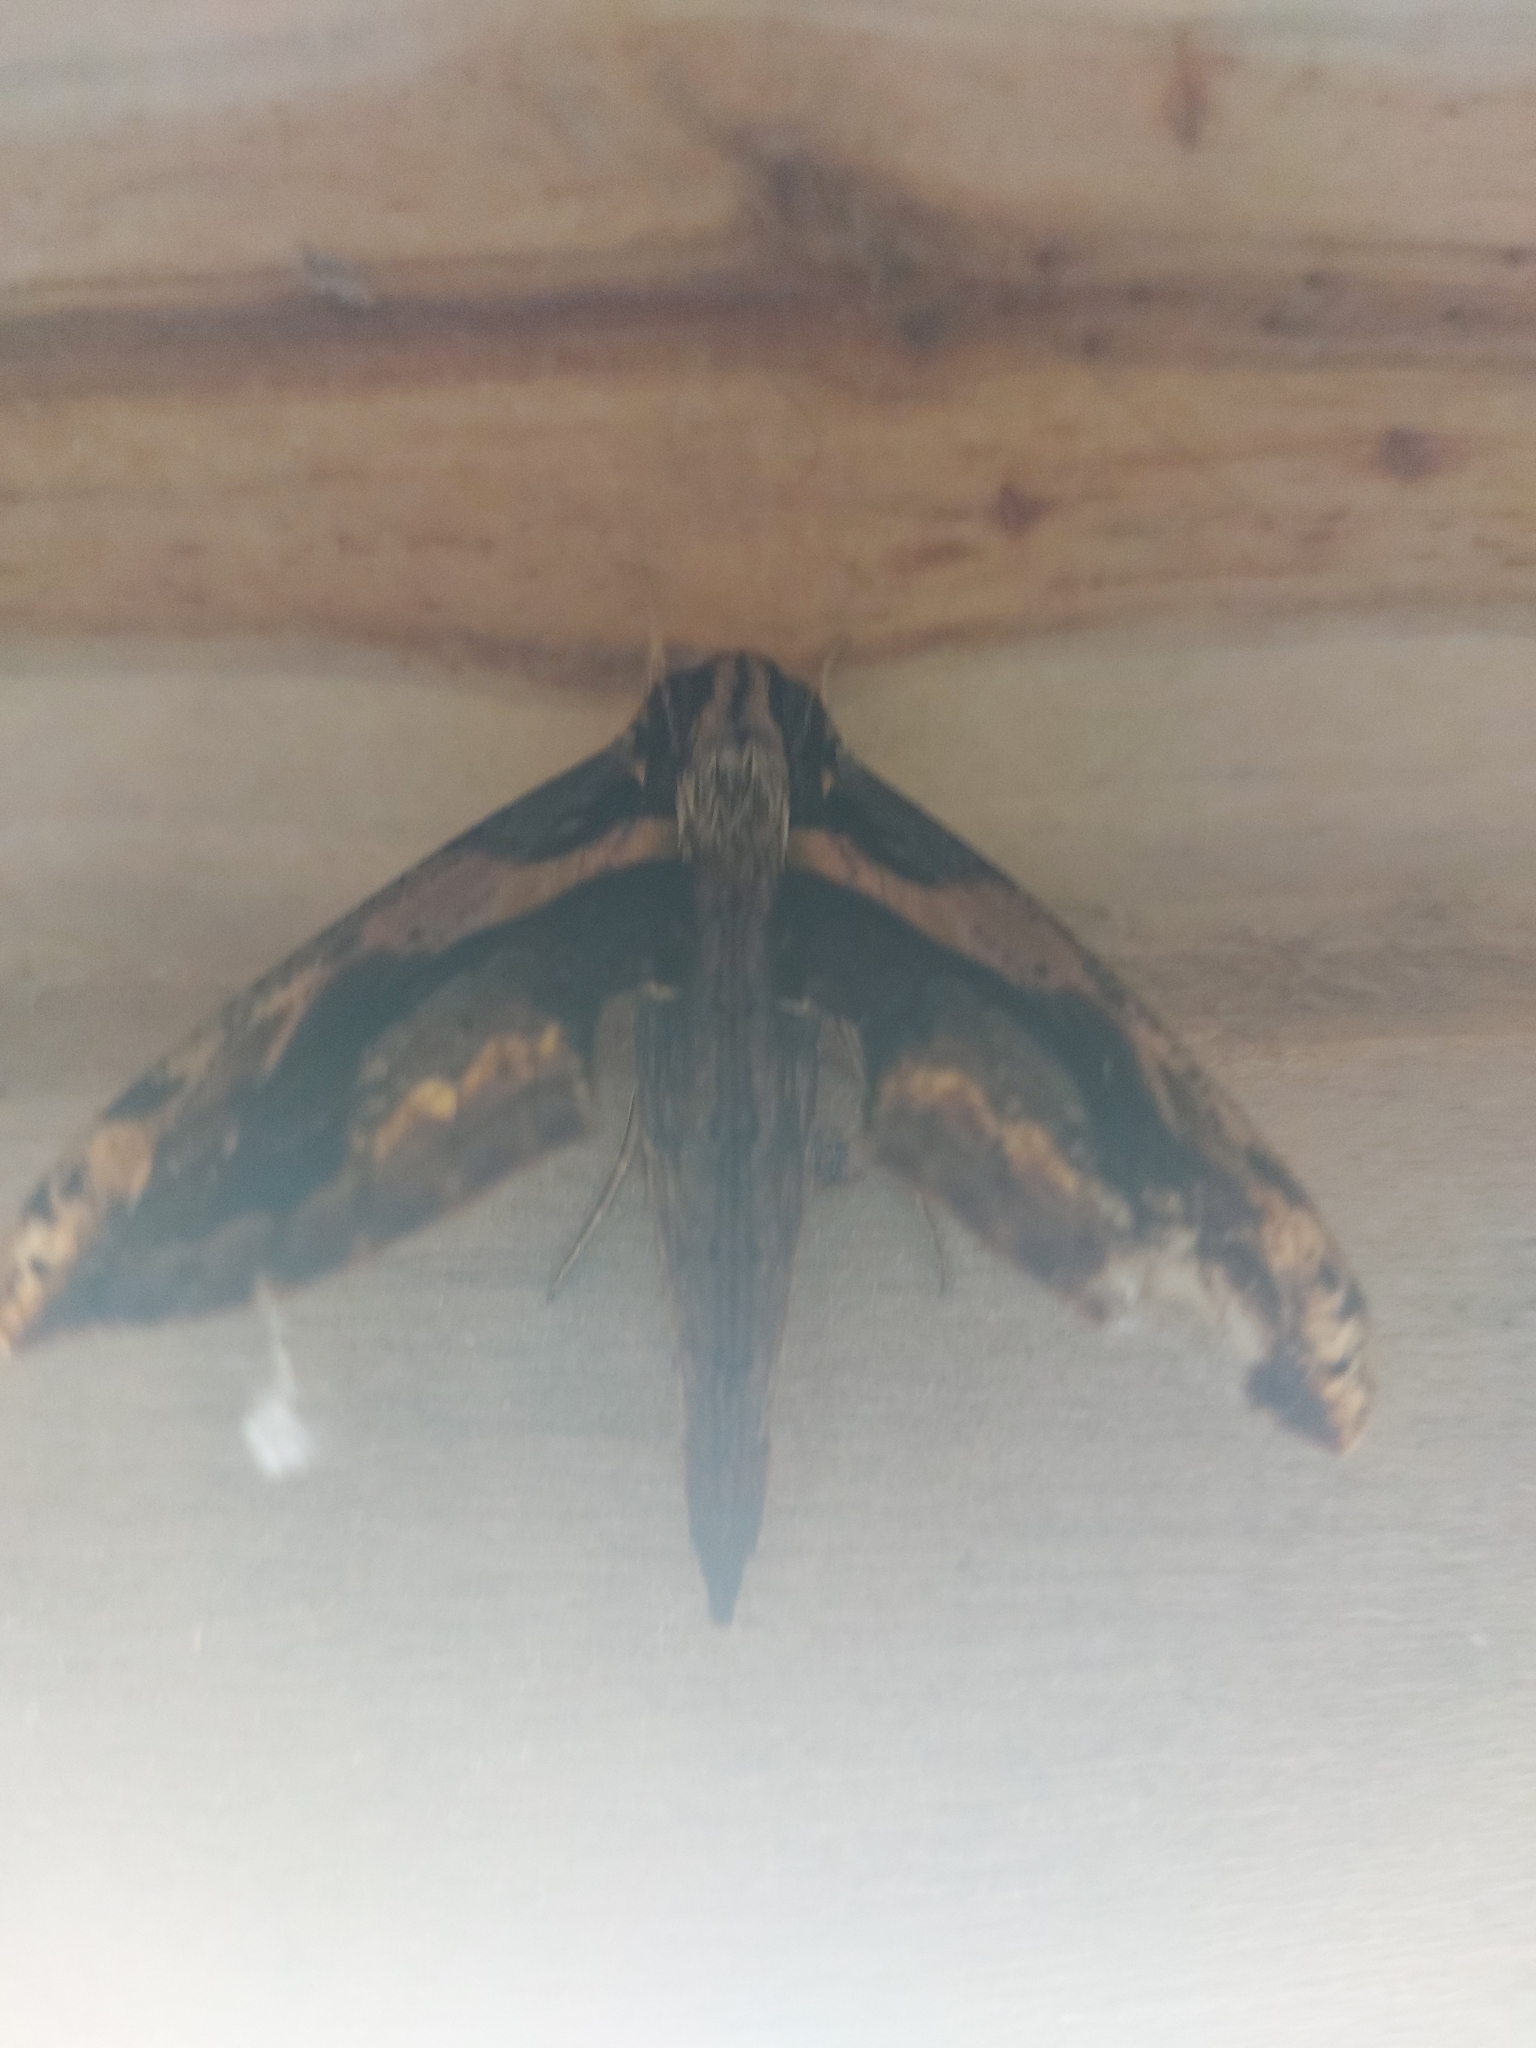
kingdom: Animalia
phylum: Arthropoda
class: Insecta
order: Lepidoptera
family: Sphingidae
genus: Xylophanes
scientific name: Xylophanes ceratomioides
